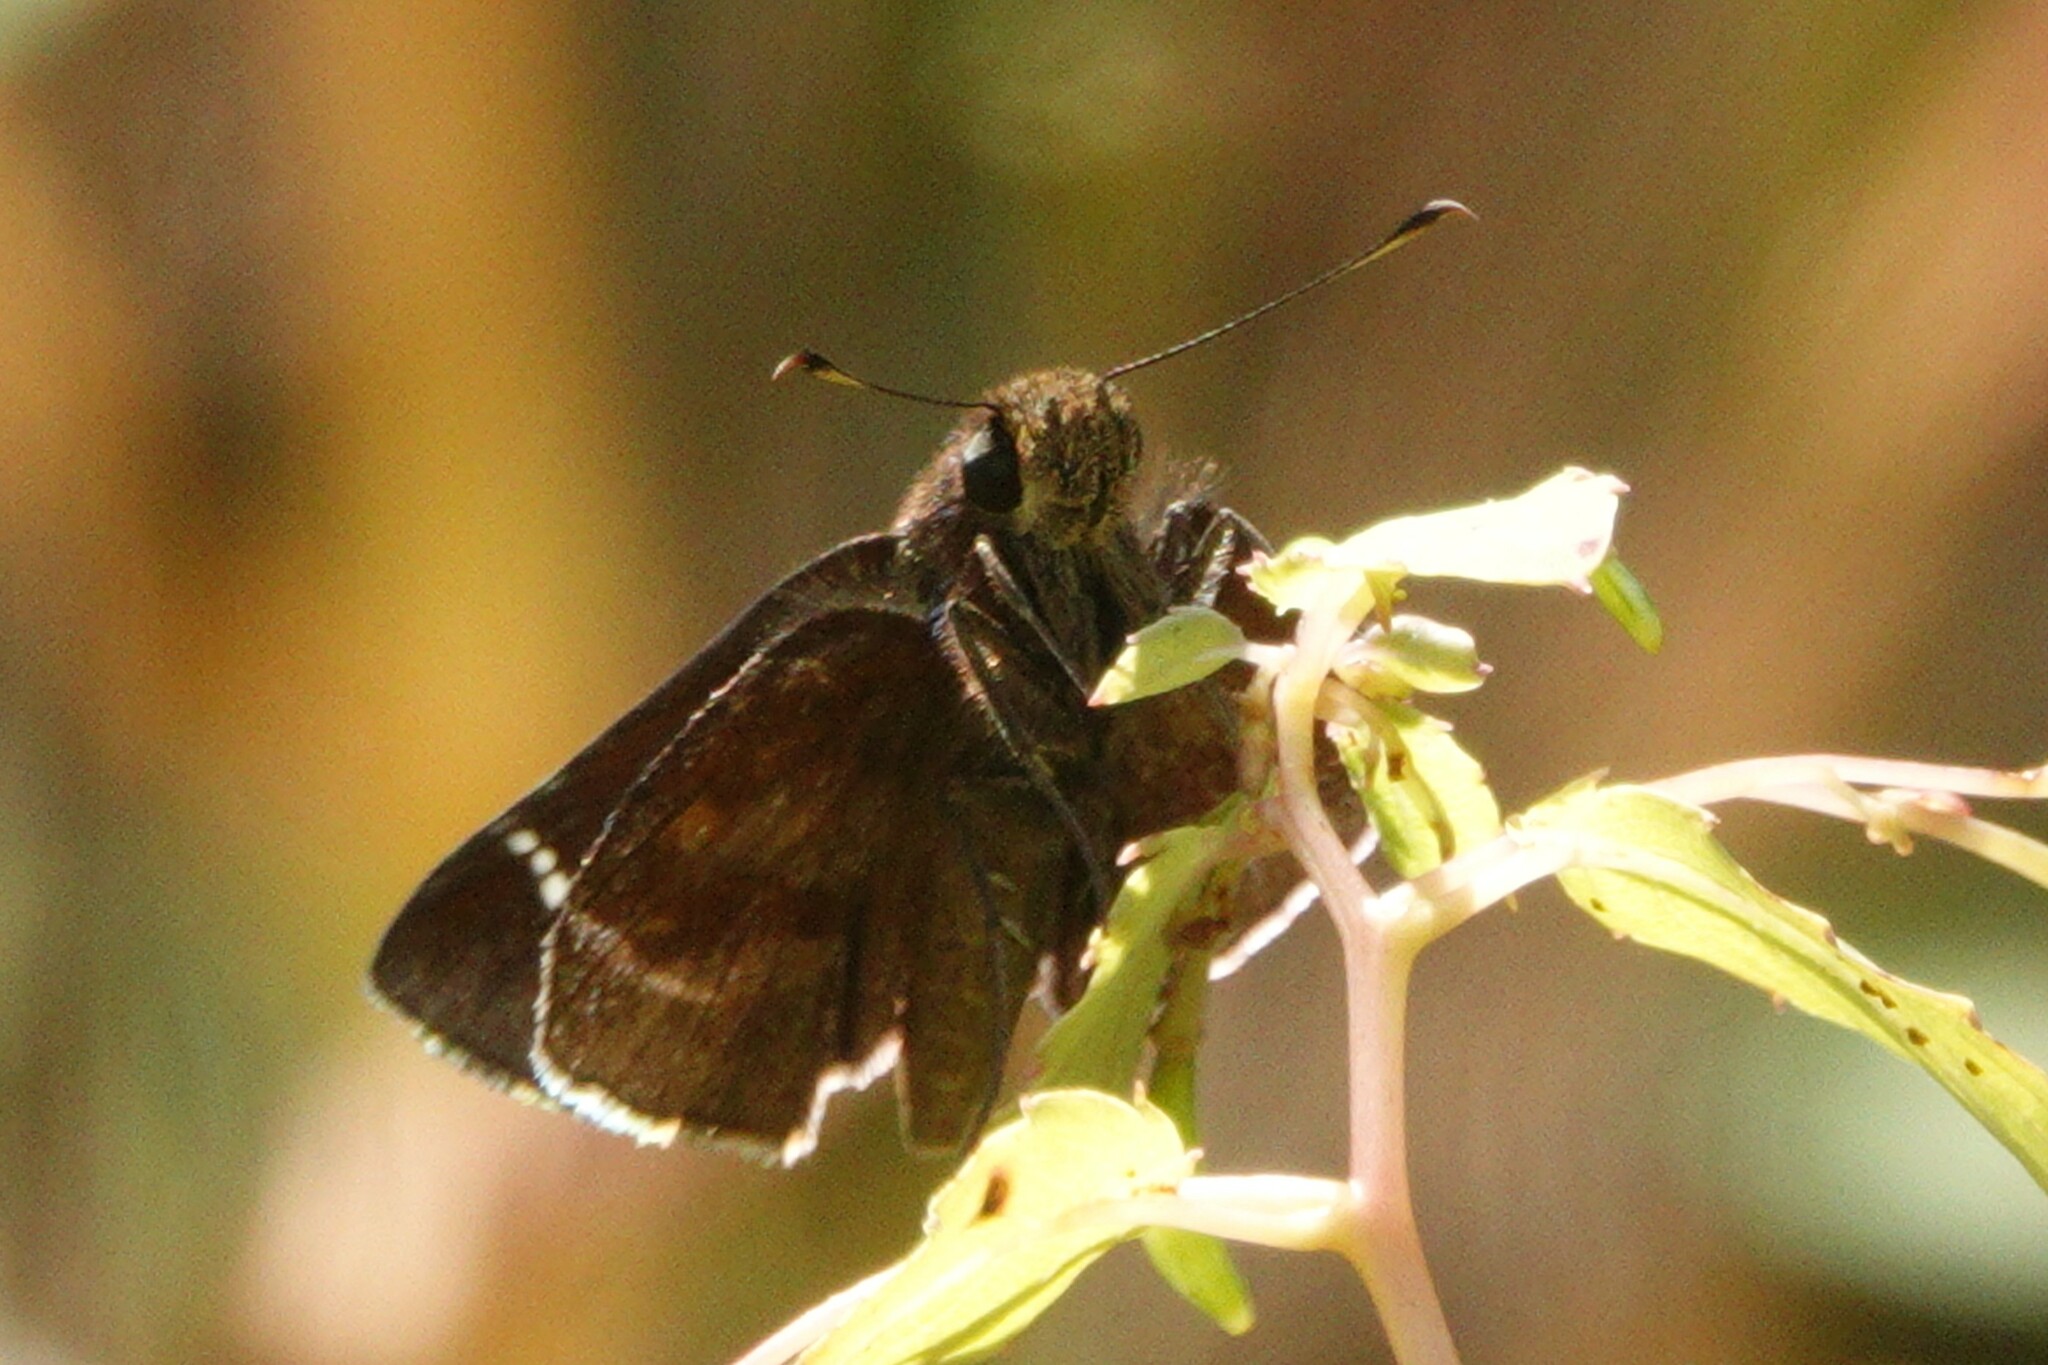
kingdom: Animalia
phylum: Arthropoda
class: Insecta
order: Lepidoptera
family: Hesperiidae
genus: Lerema
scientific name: Lerema accius
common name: Clouded skipper
